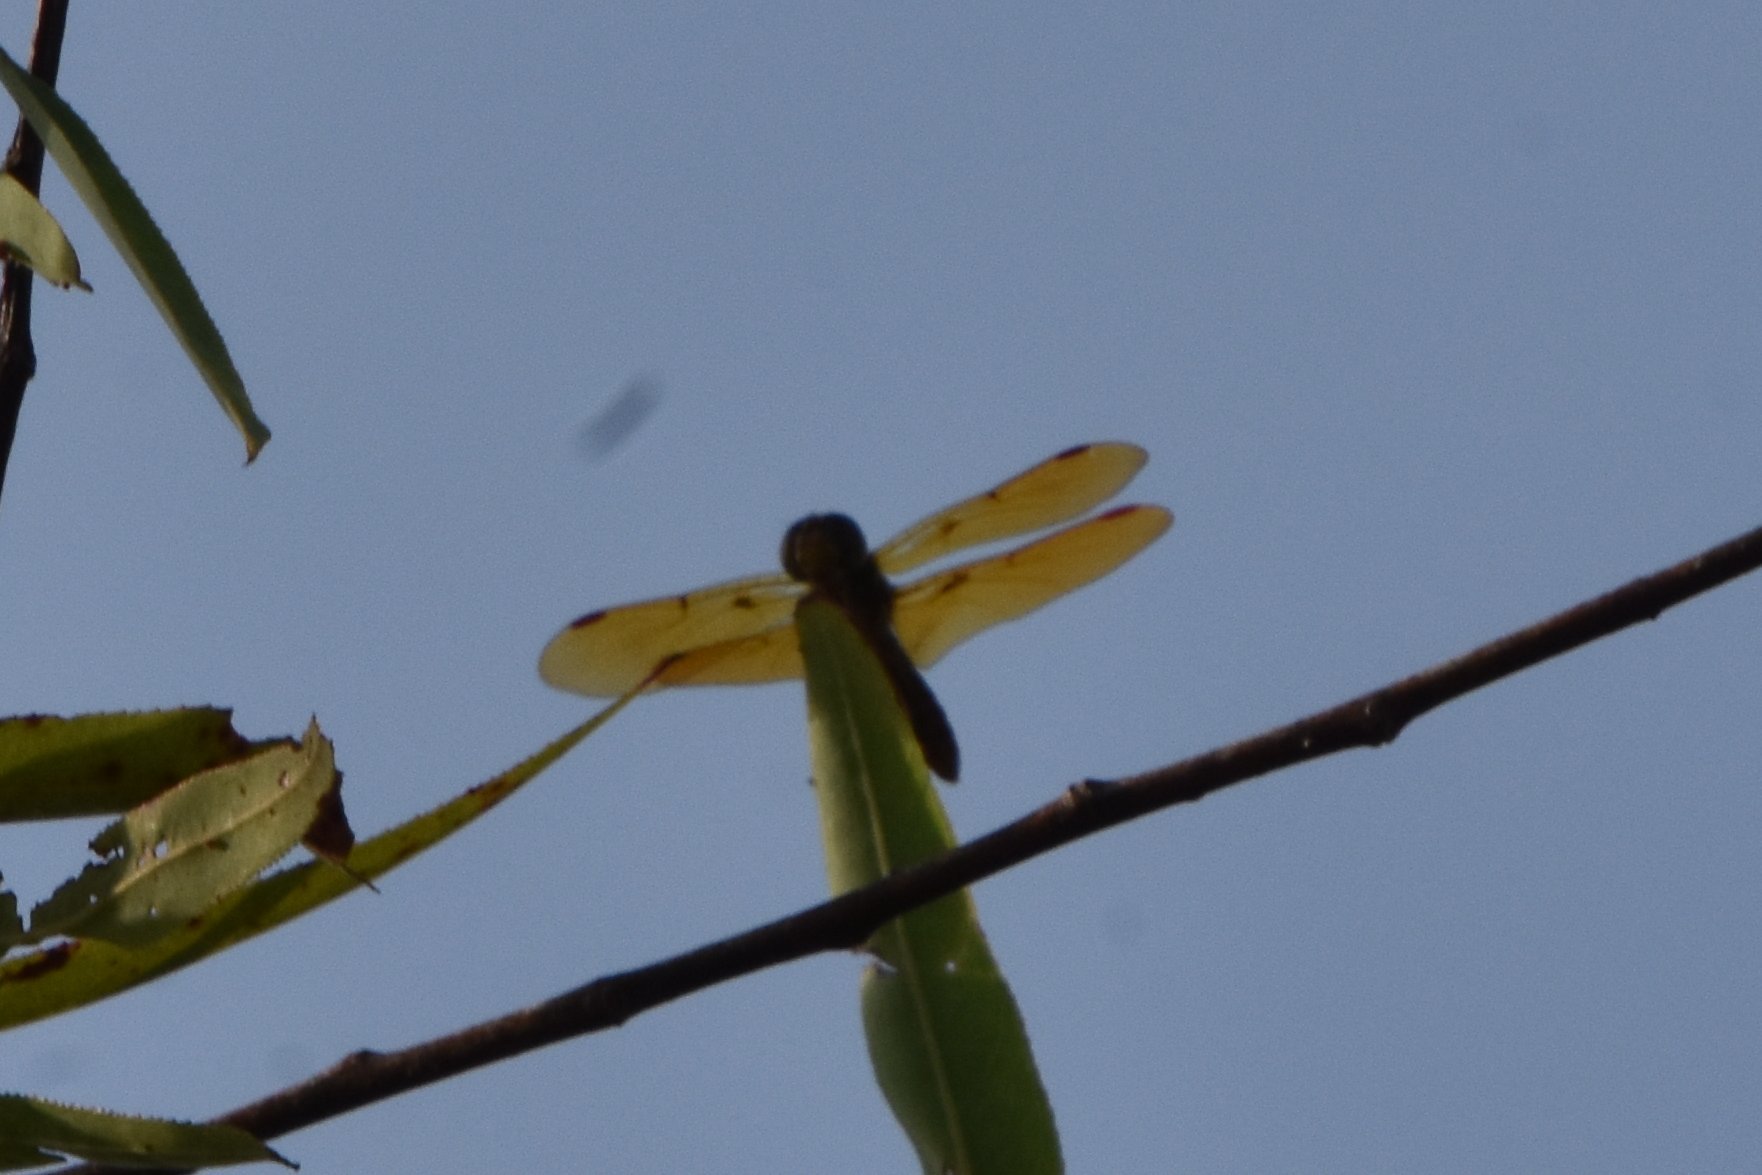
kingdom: Animalia
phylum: Arthropoda
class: Insecta
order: Odonata
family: Libellulidae
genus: Perithemis
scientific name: Perithemis tenera
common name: Eastern amberwing
